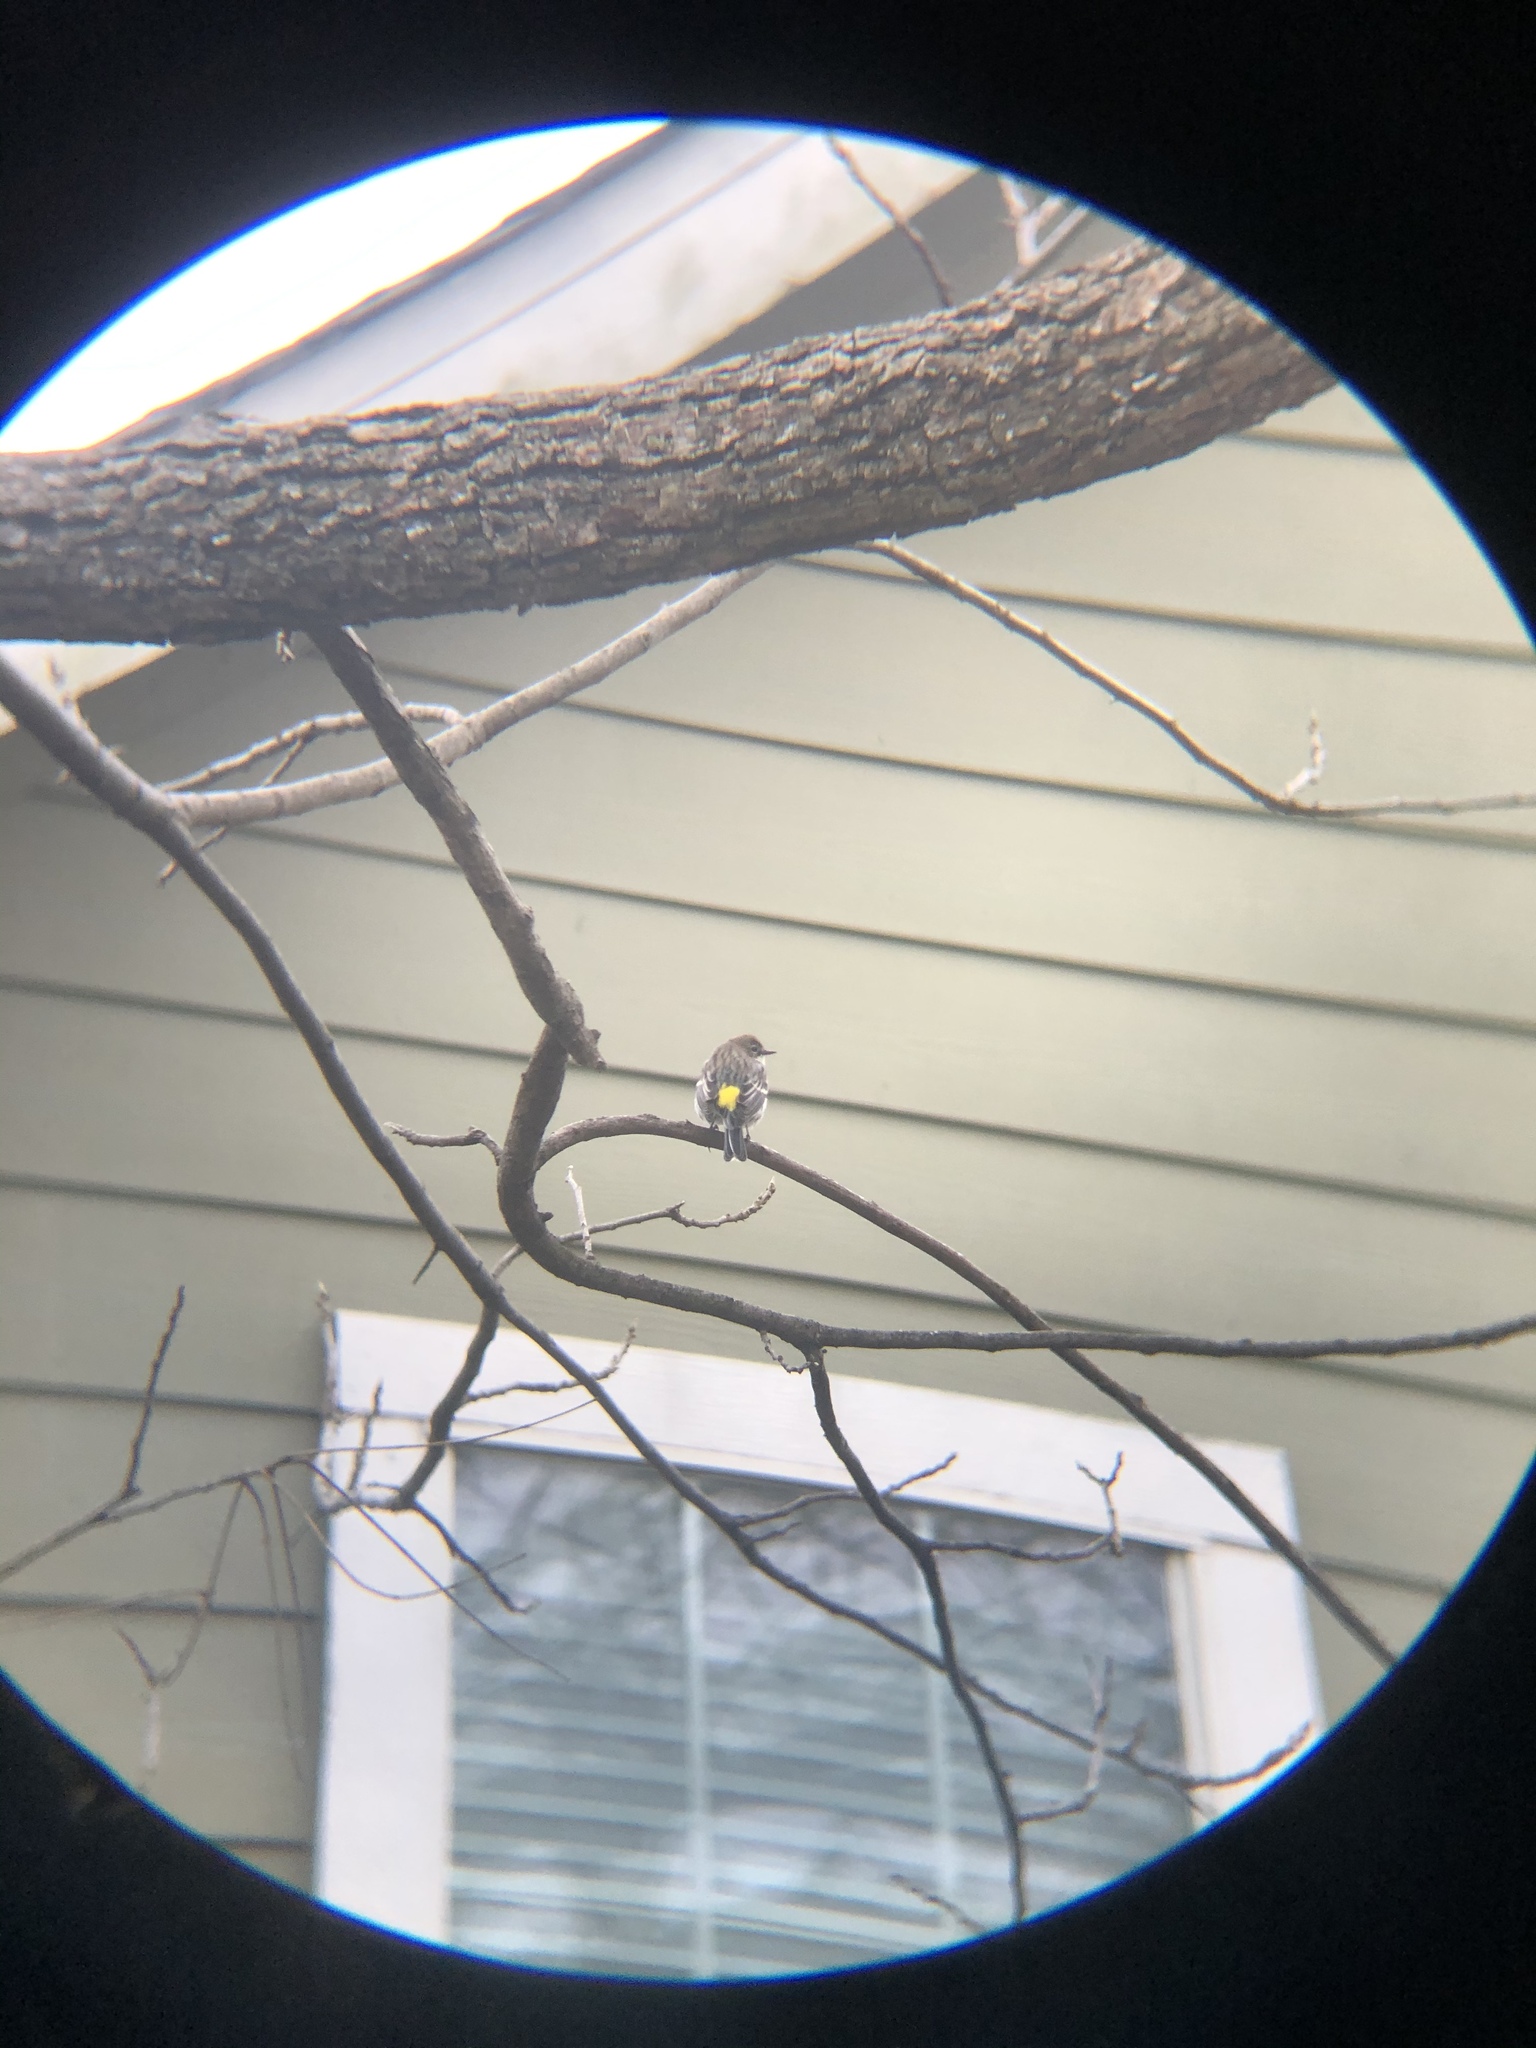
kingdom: Animalia
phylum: Chordata
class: Aves
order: Passeriformes
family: Parulidae
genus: Setophaga
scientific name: Setophaga coronata
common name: Myrtle warbler
